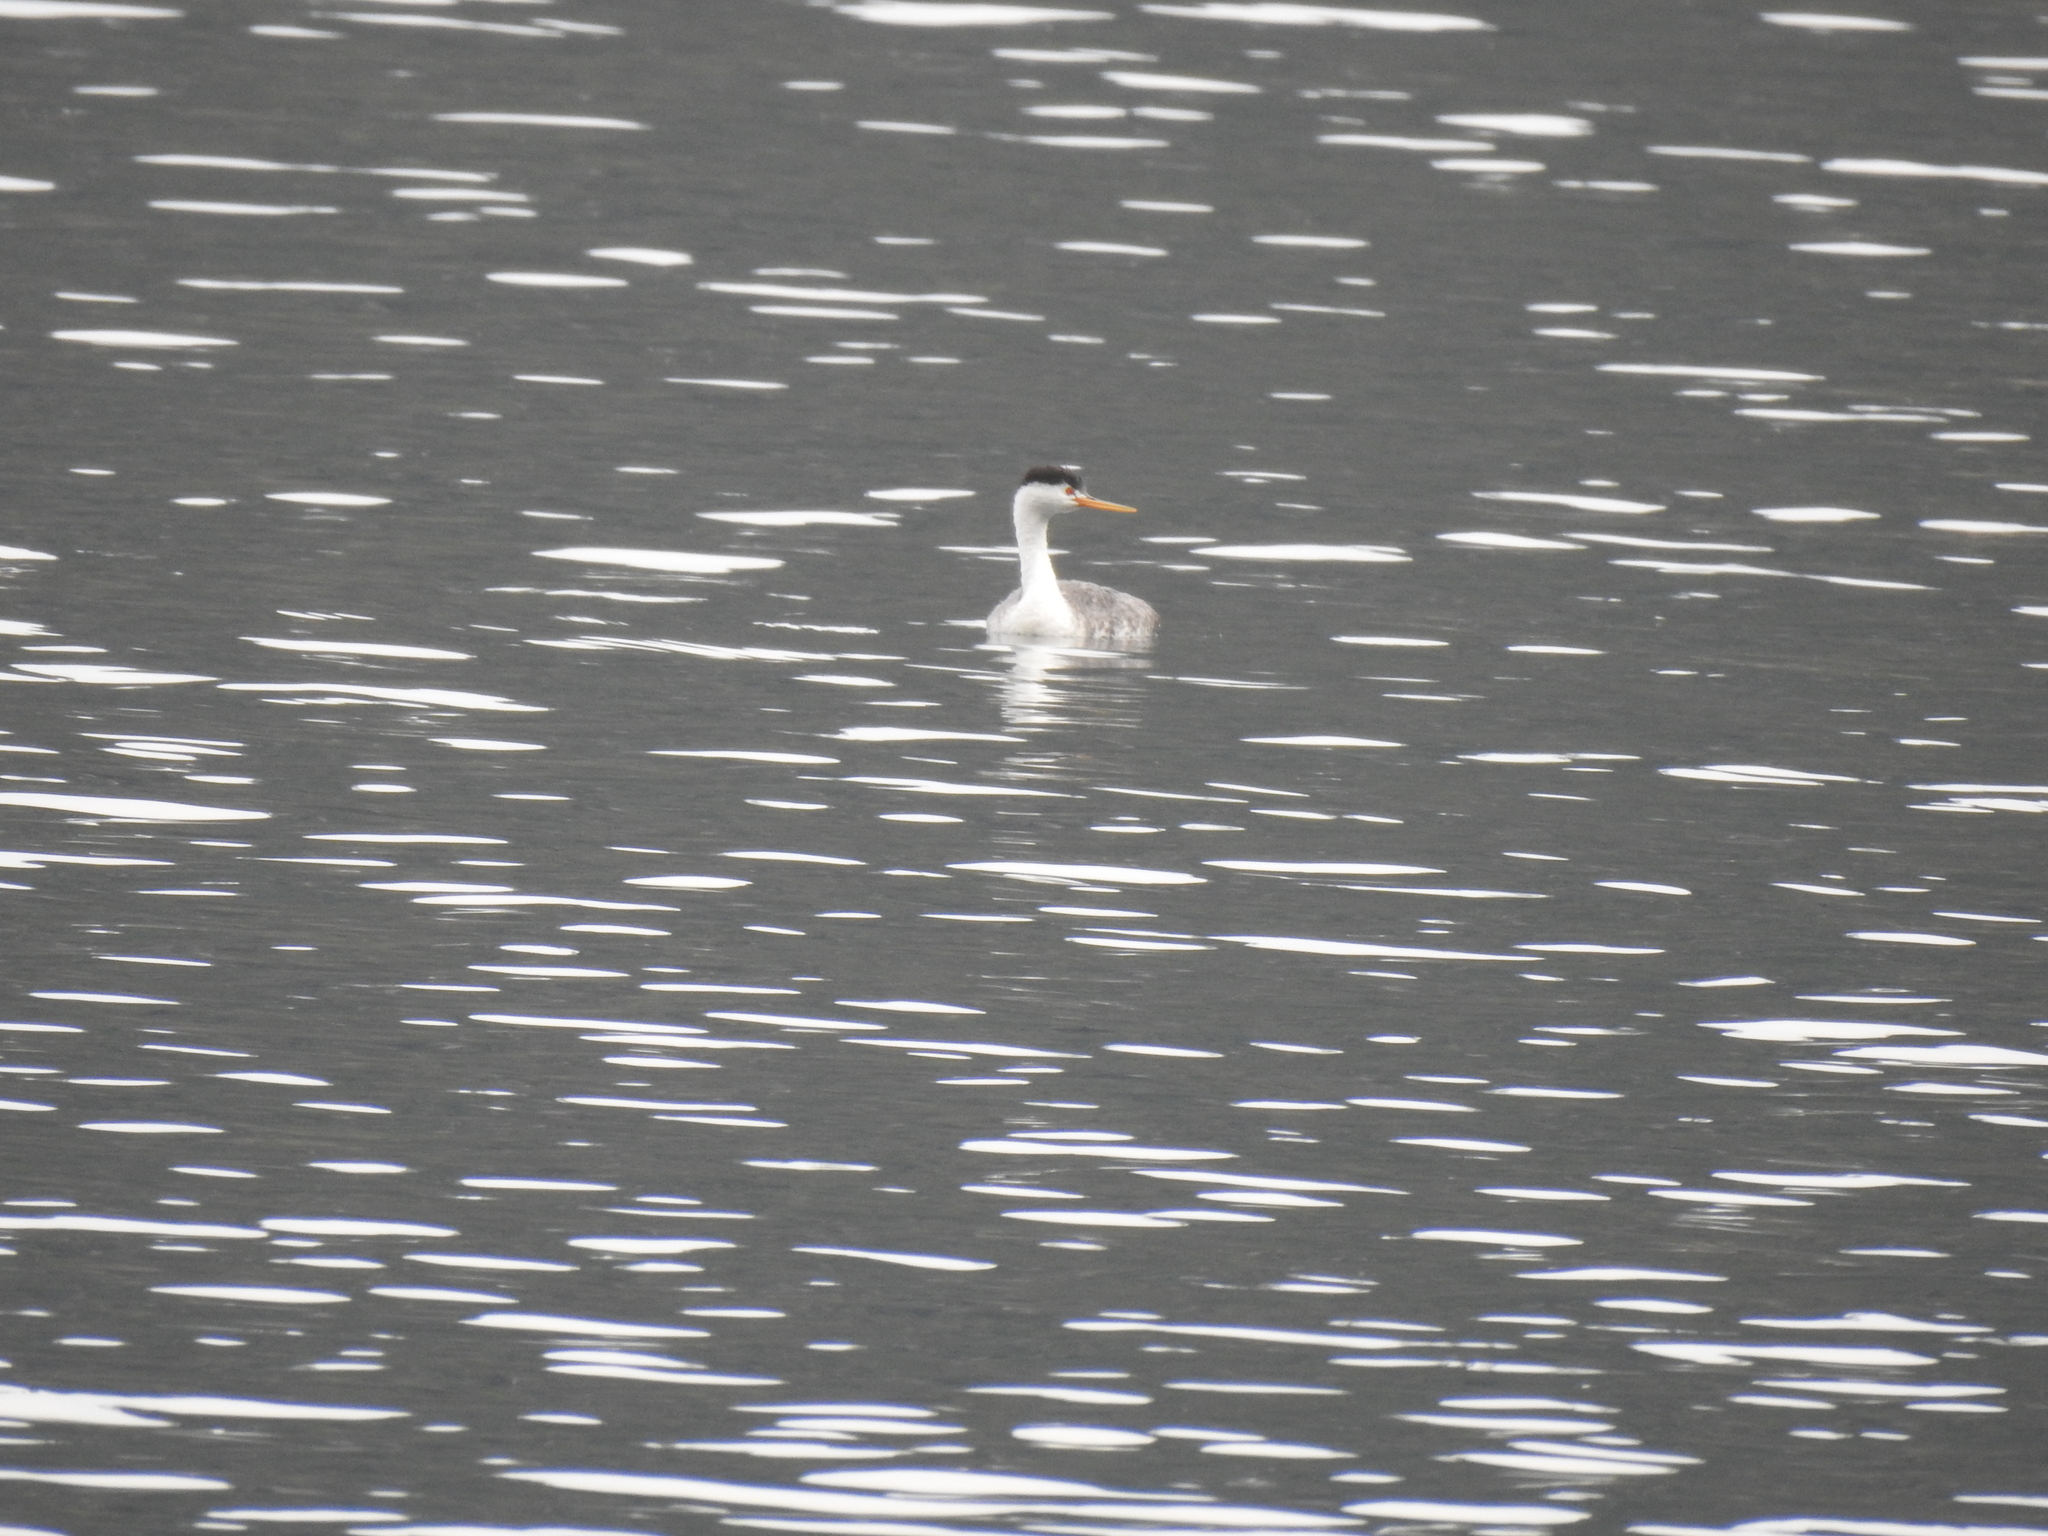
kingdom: Animalia
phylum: Chordata
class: Aves
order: Podicipediformes
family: Podicipedidae
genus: Aechmophorus
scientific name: Aechmophorus clarkii
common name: Clark's grebe
